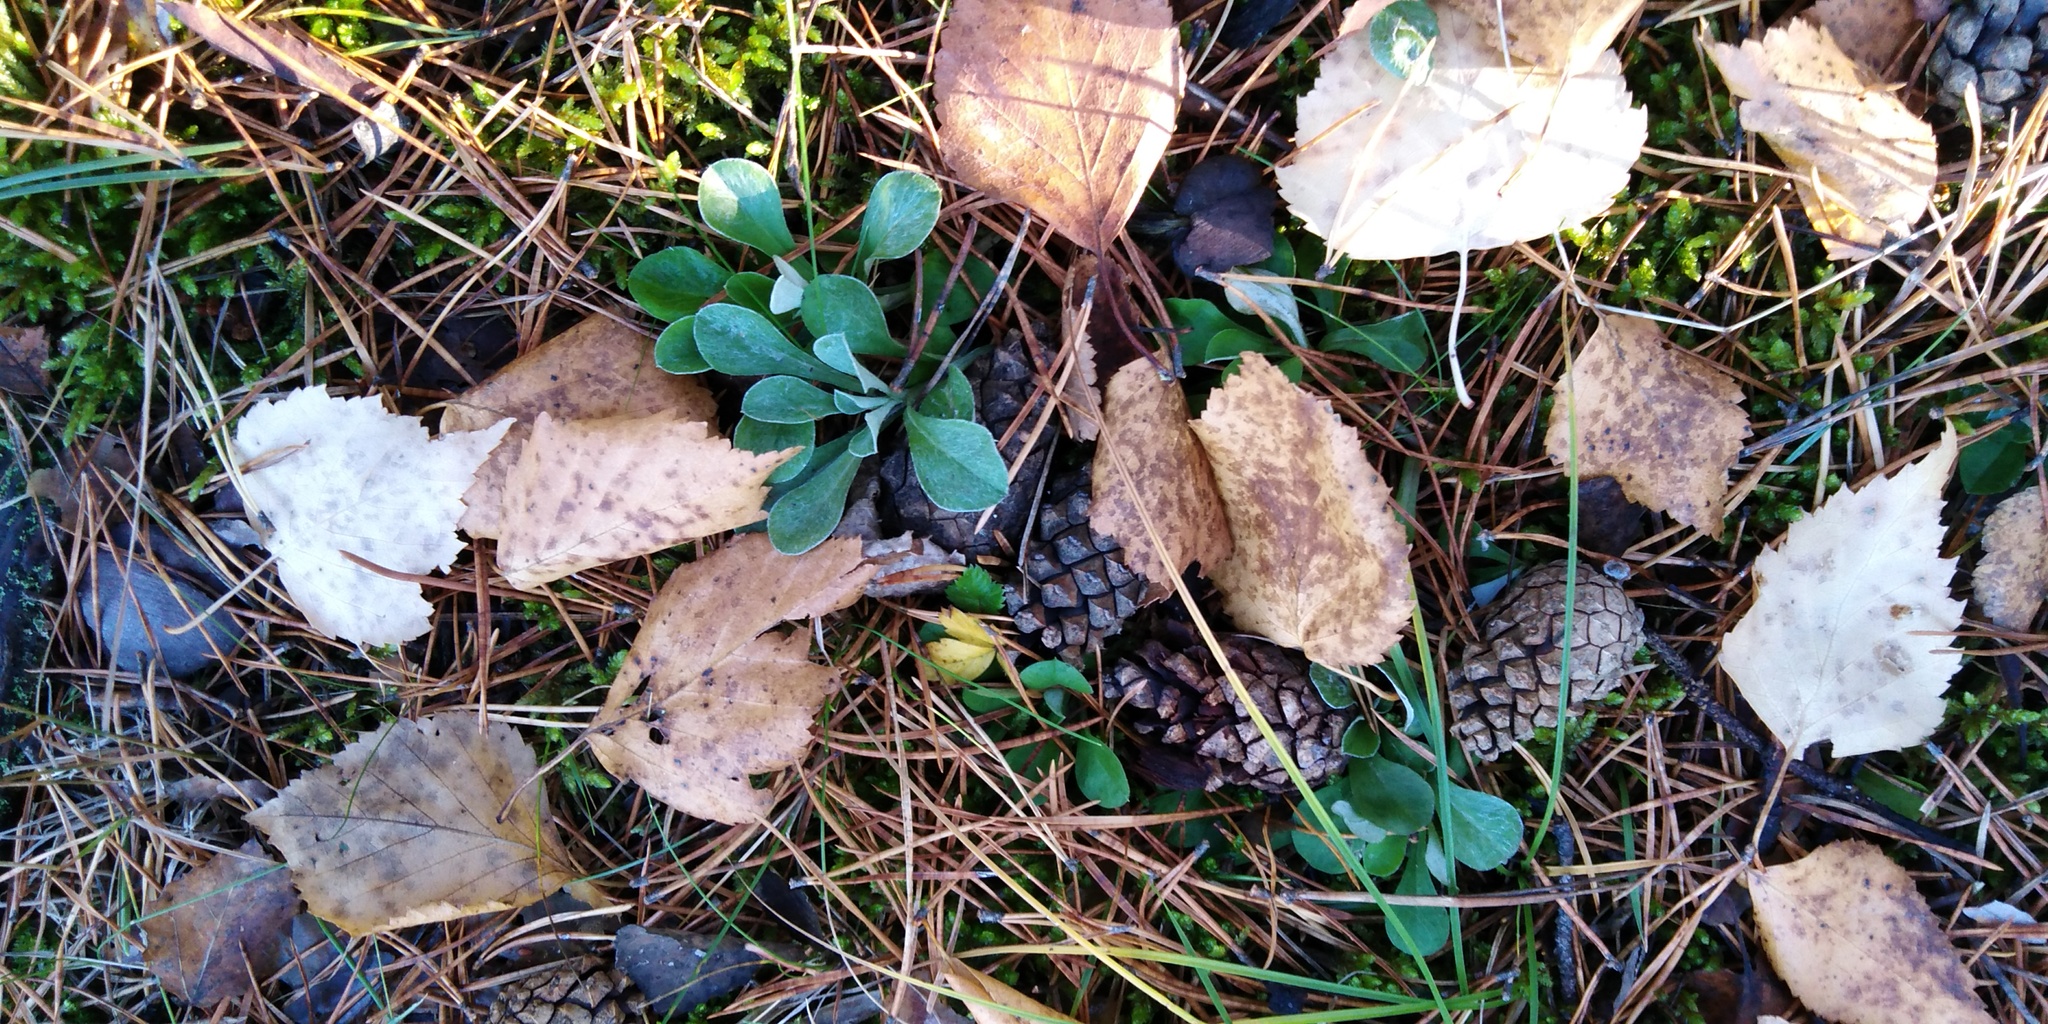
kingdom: Plantae
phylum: Tracheophyta
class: Magnoliopsida
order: Asterales
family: Asteraceae
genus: Antennaria
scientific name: Antennaria dioica
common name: Mountain everlasting
